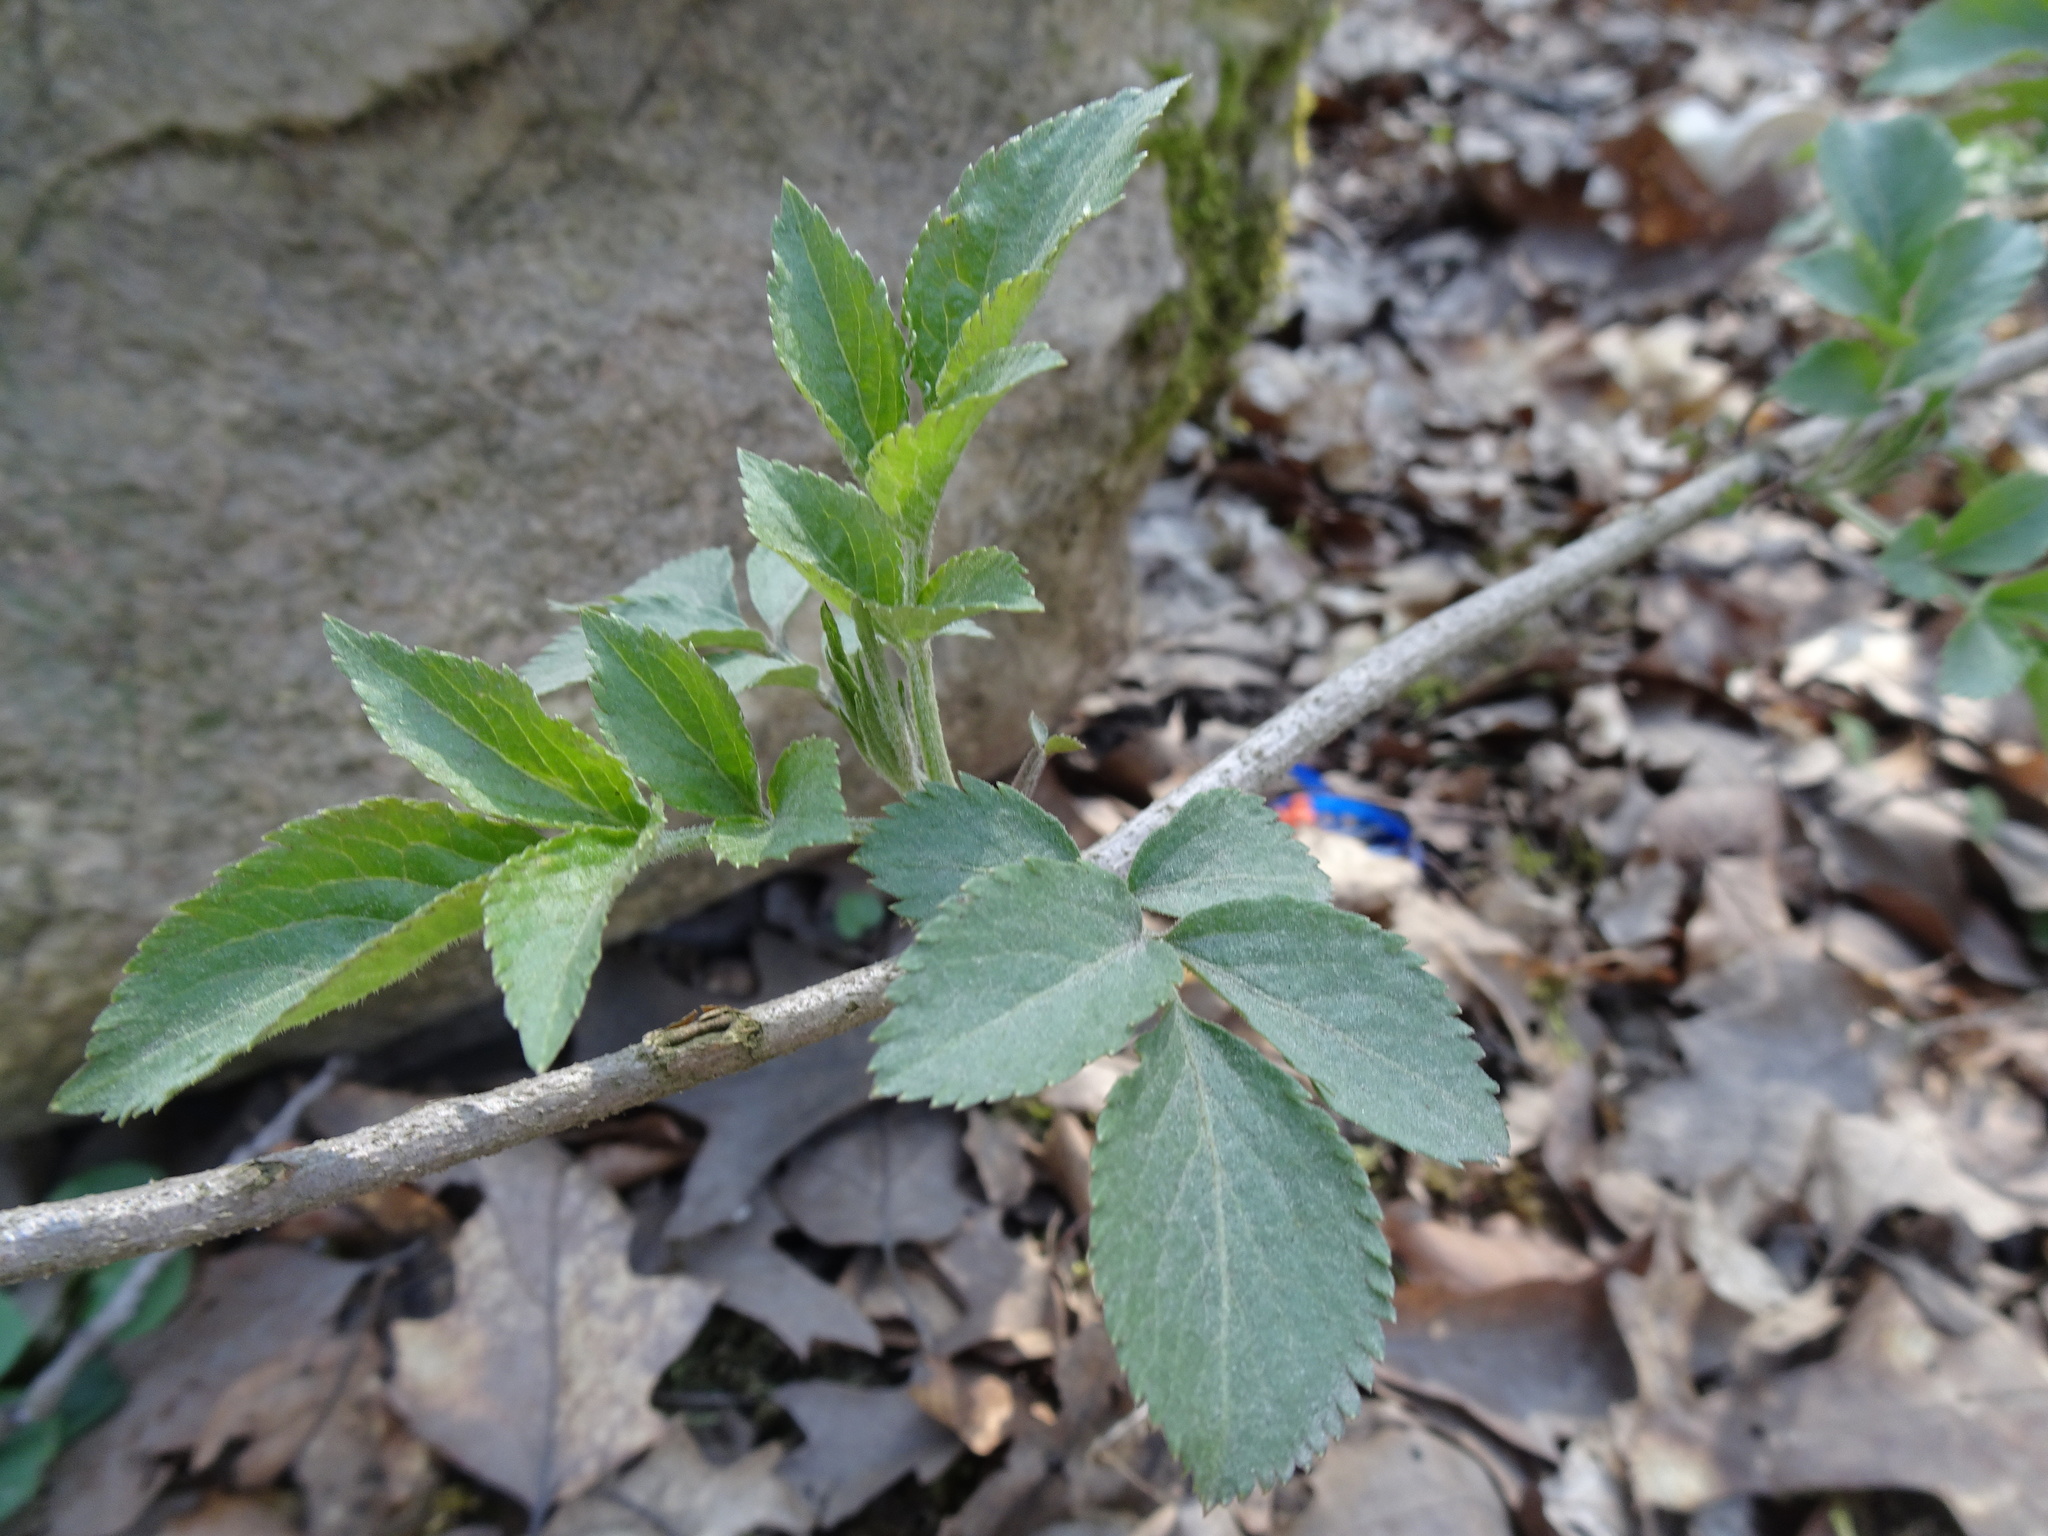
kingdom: Plantae
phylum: Tracheophyta
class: Magnoliopsida
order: Dipsacales
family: Viburnaceae
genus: Sambucus
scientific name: Sambucus nigra
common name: Elder
